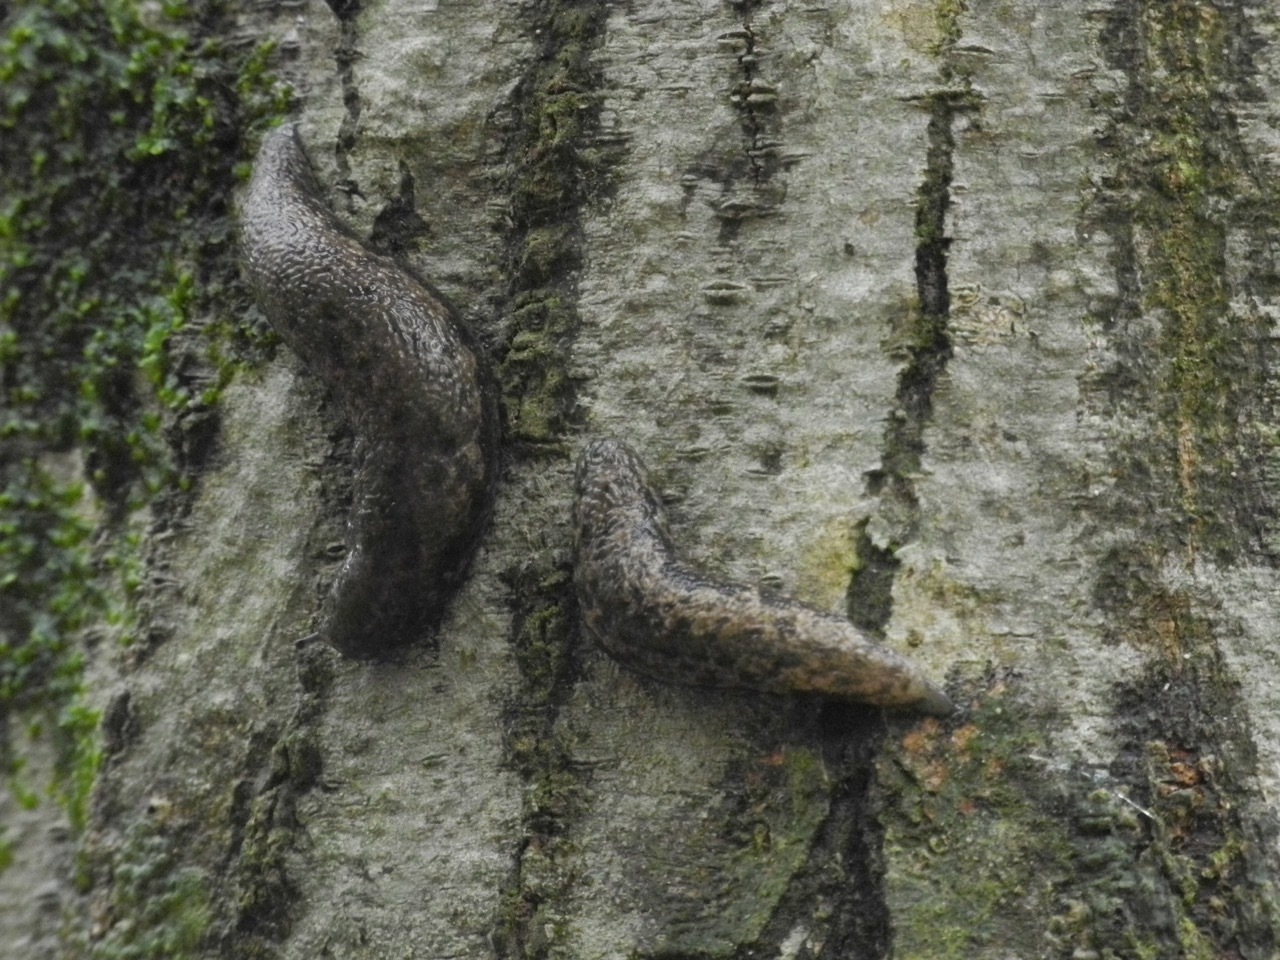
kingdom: Animalia
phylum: Mollusca
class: Gastropoda
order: Stylommatophora
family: Philomycidae
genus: Megapallifera
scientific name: Megapallifera mutabilis
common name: Changeable mantleslug
